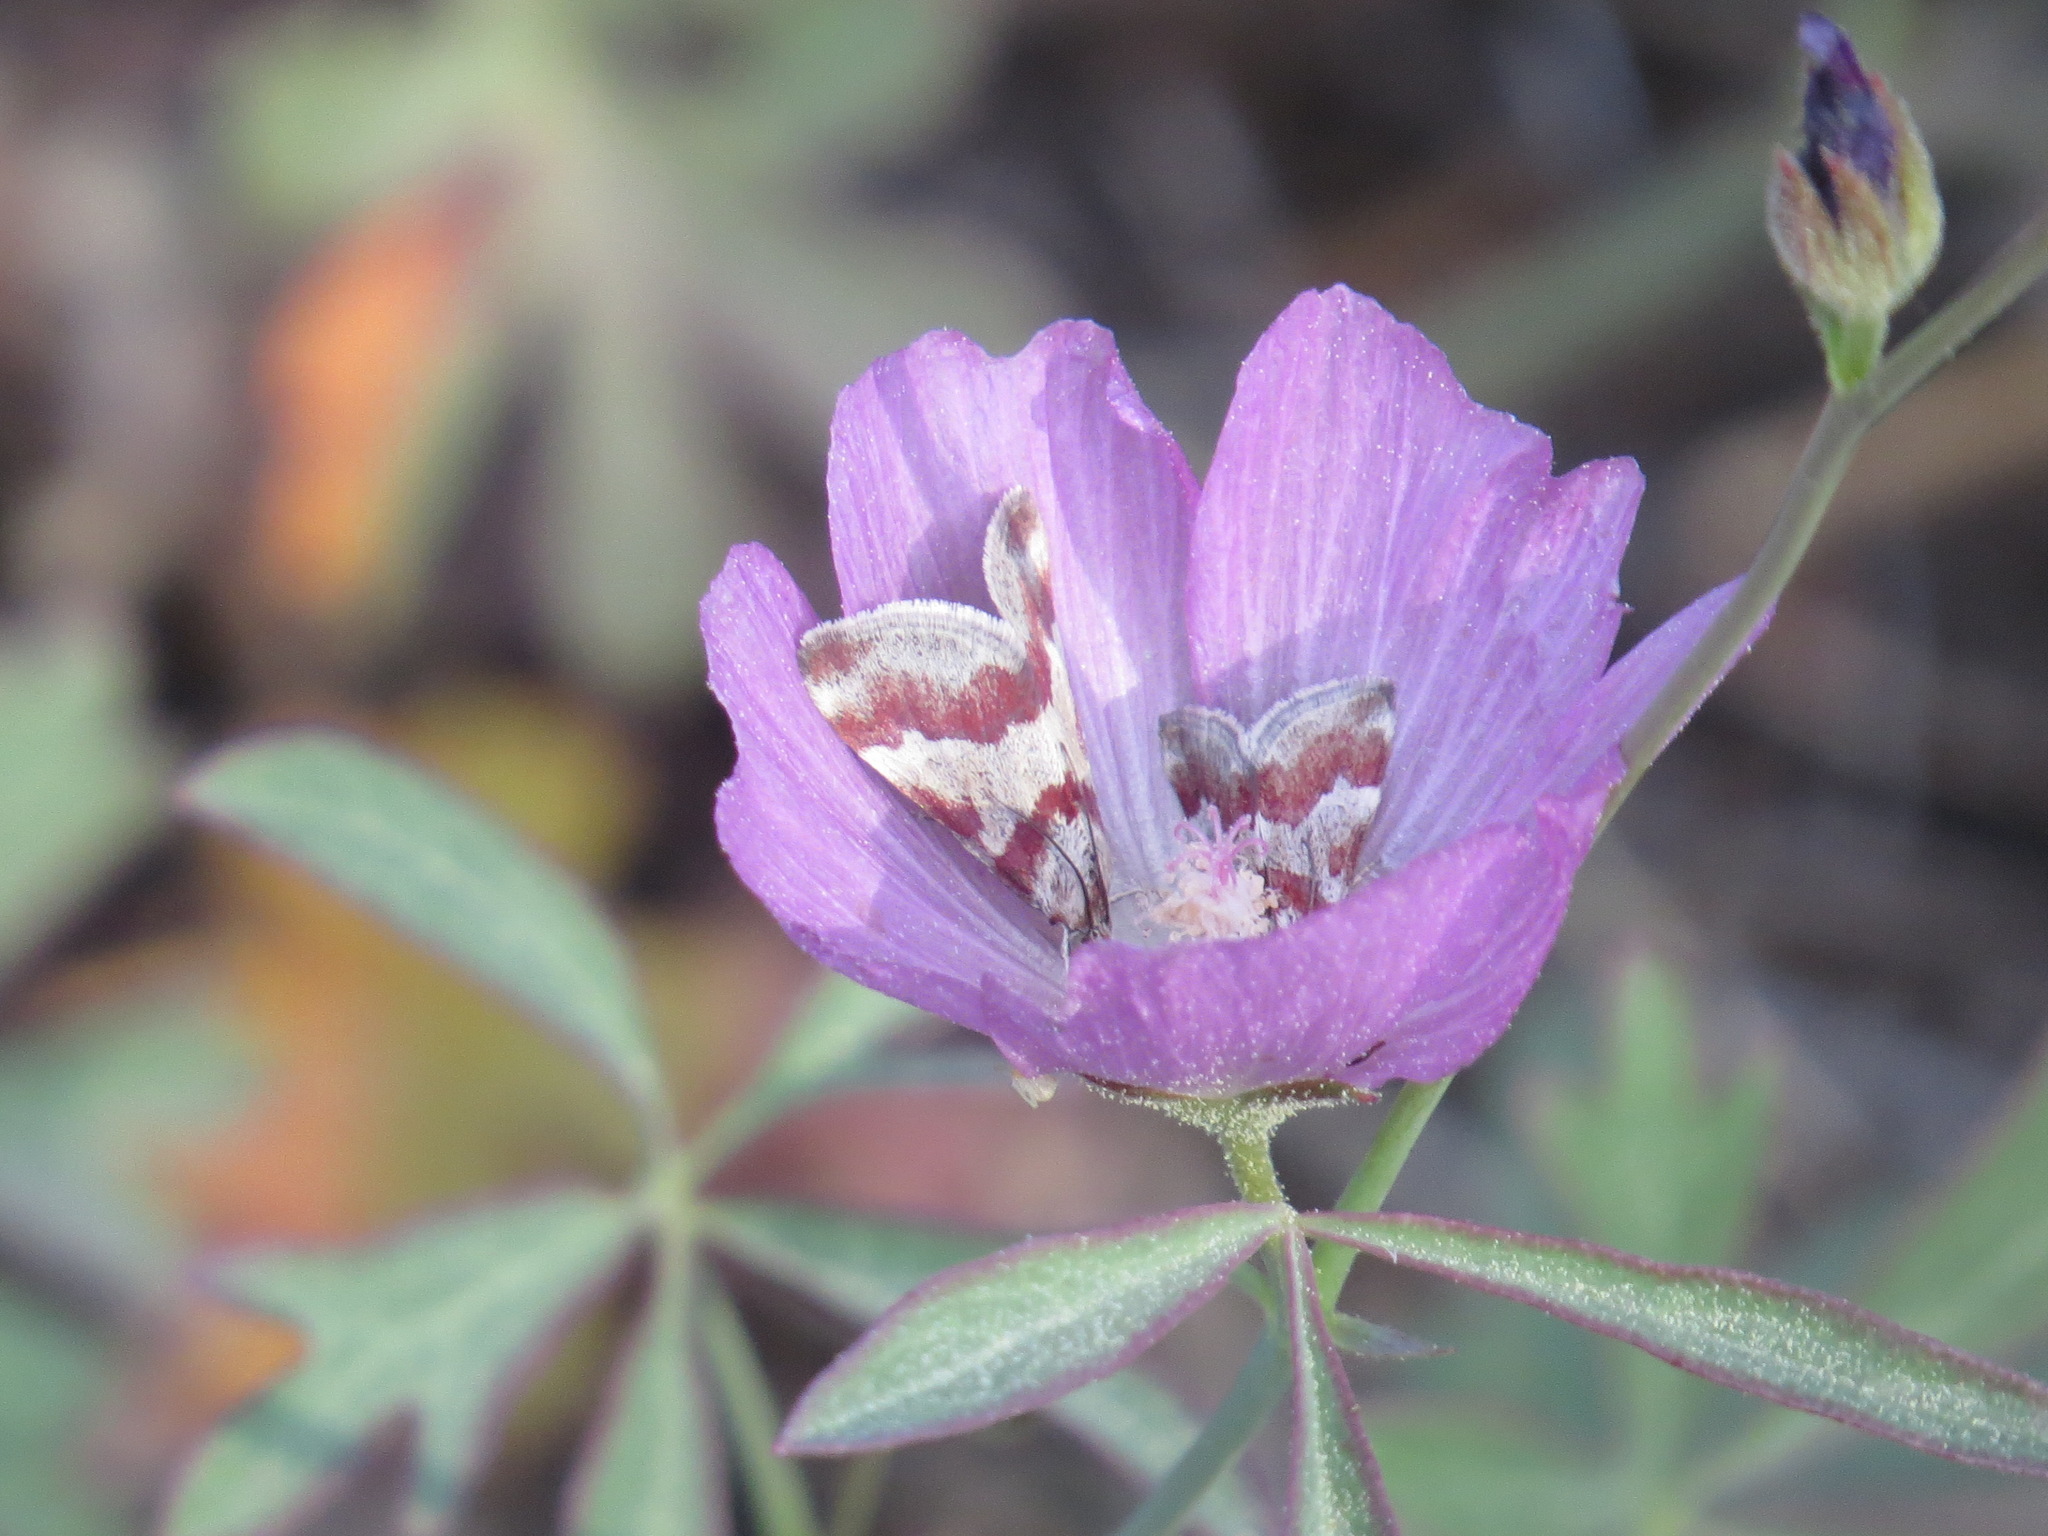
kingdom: Animalia
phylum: Arthropoda
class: Insecta
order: Lepidoptera
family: Crambidae
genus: Noctuelia
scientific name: Noctuelia Mimoschinia rufofascialis
